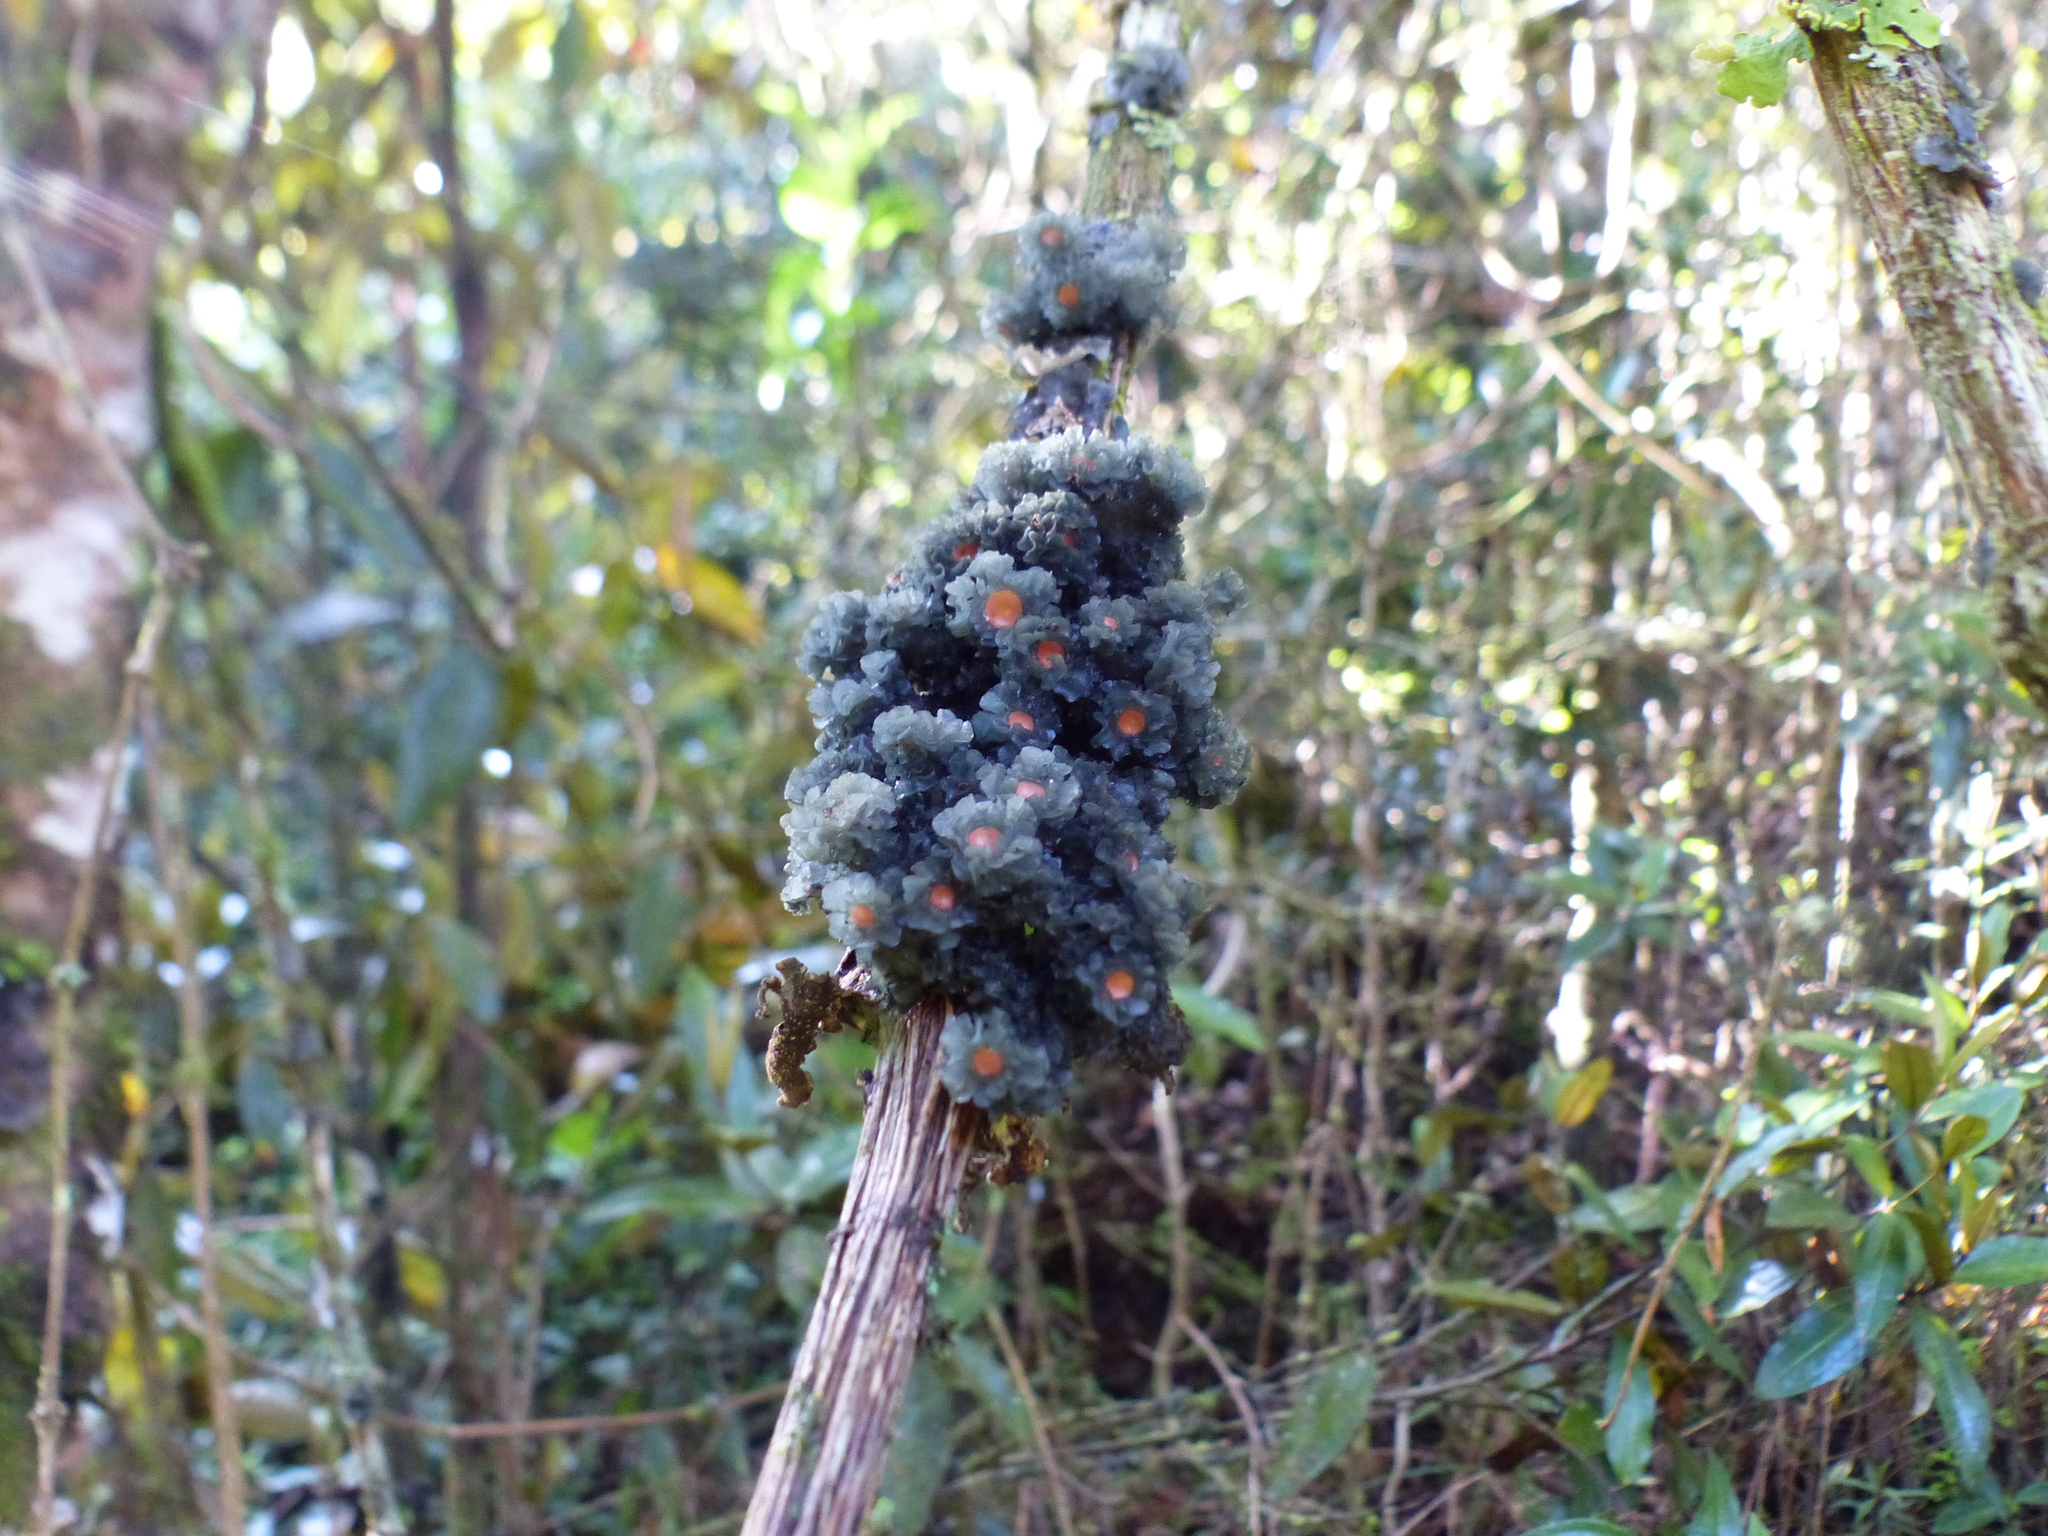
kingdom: Fungi
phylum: Ascomycota
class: Lecanoromycetes
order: Peltigerales
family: Collemataceae
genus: Leptogium
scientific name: Leptogium phyllocarpum
